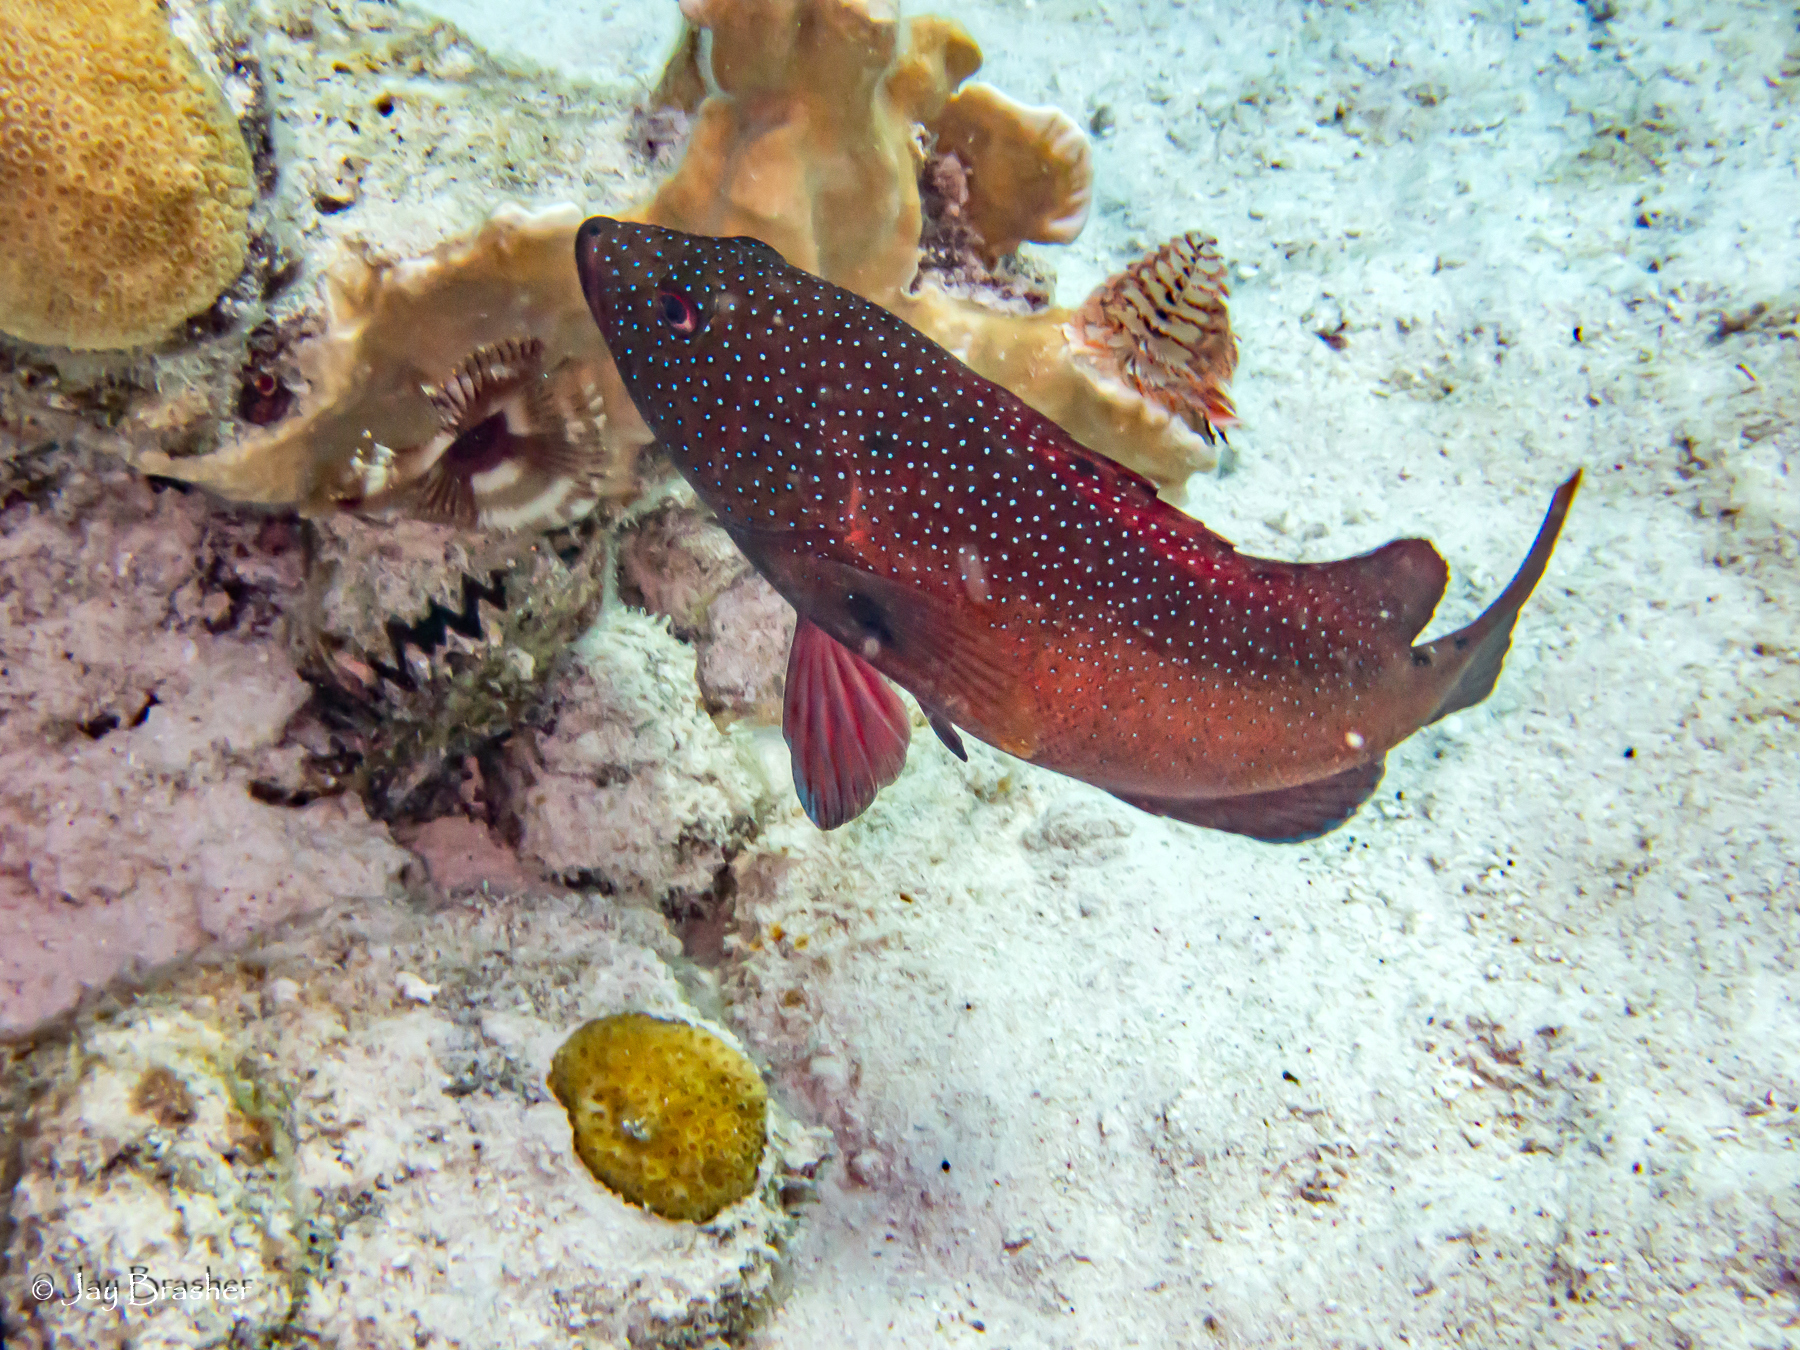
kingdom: Animalia
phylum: Chordata
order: Perciformes
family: Serranidae
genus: Cephalopholis
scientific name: Cephalopholis fulva
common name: Butterfish
